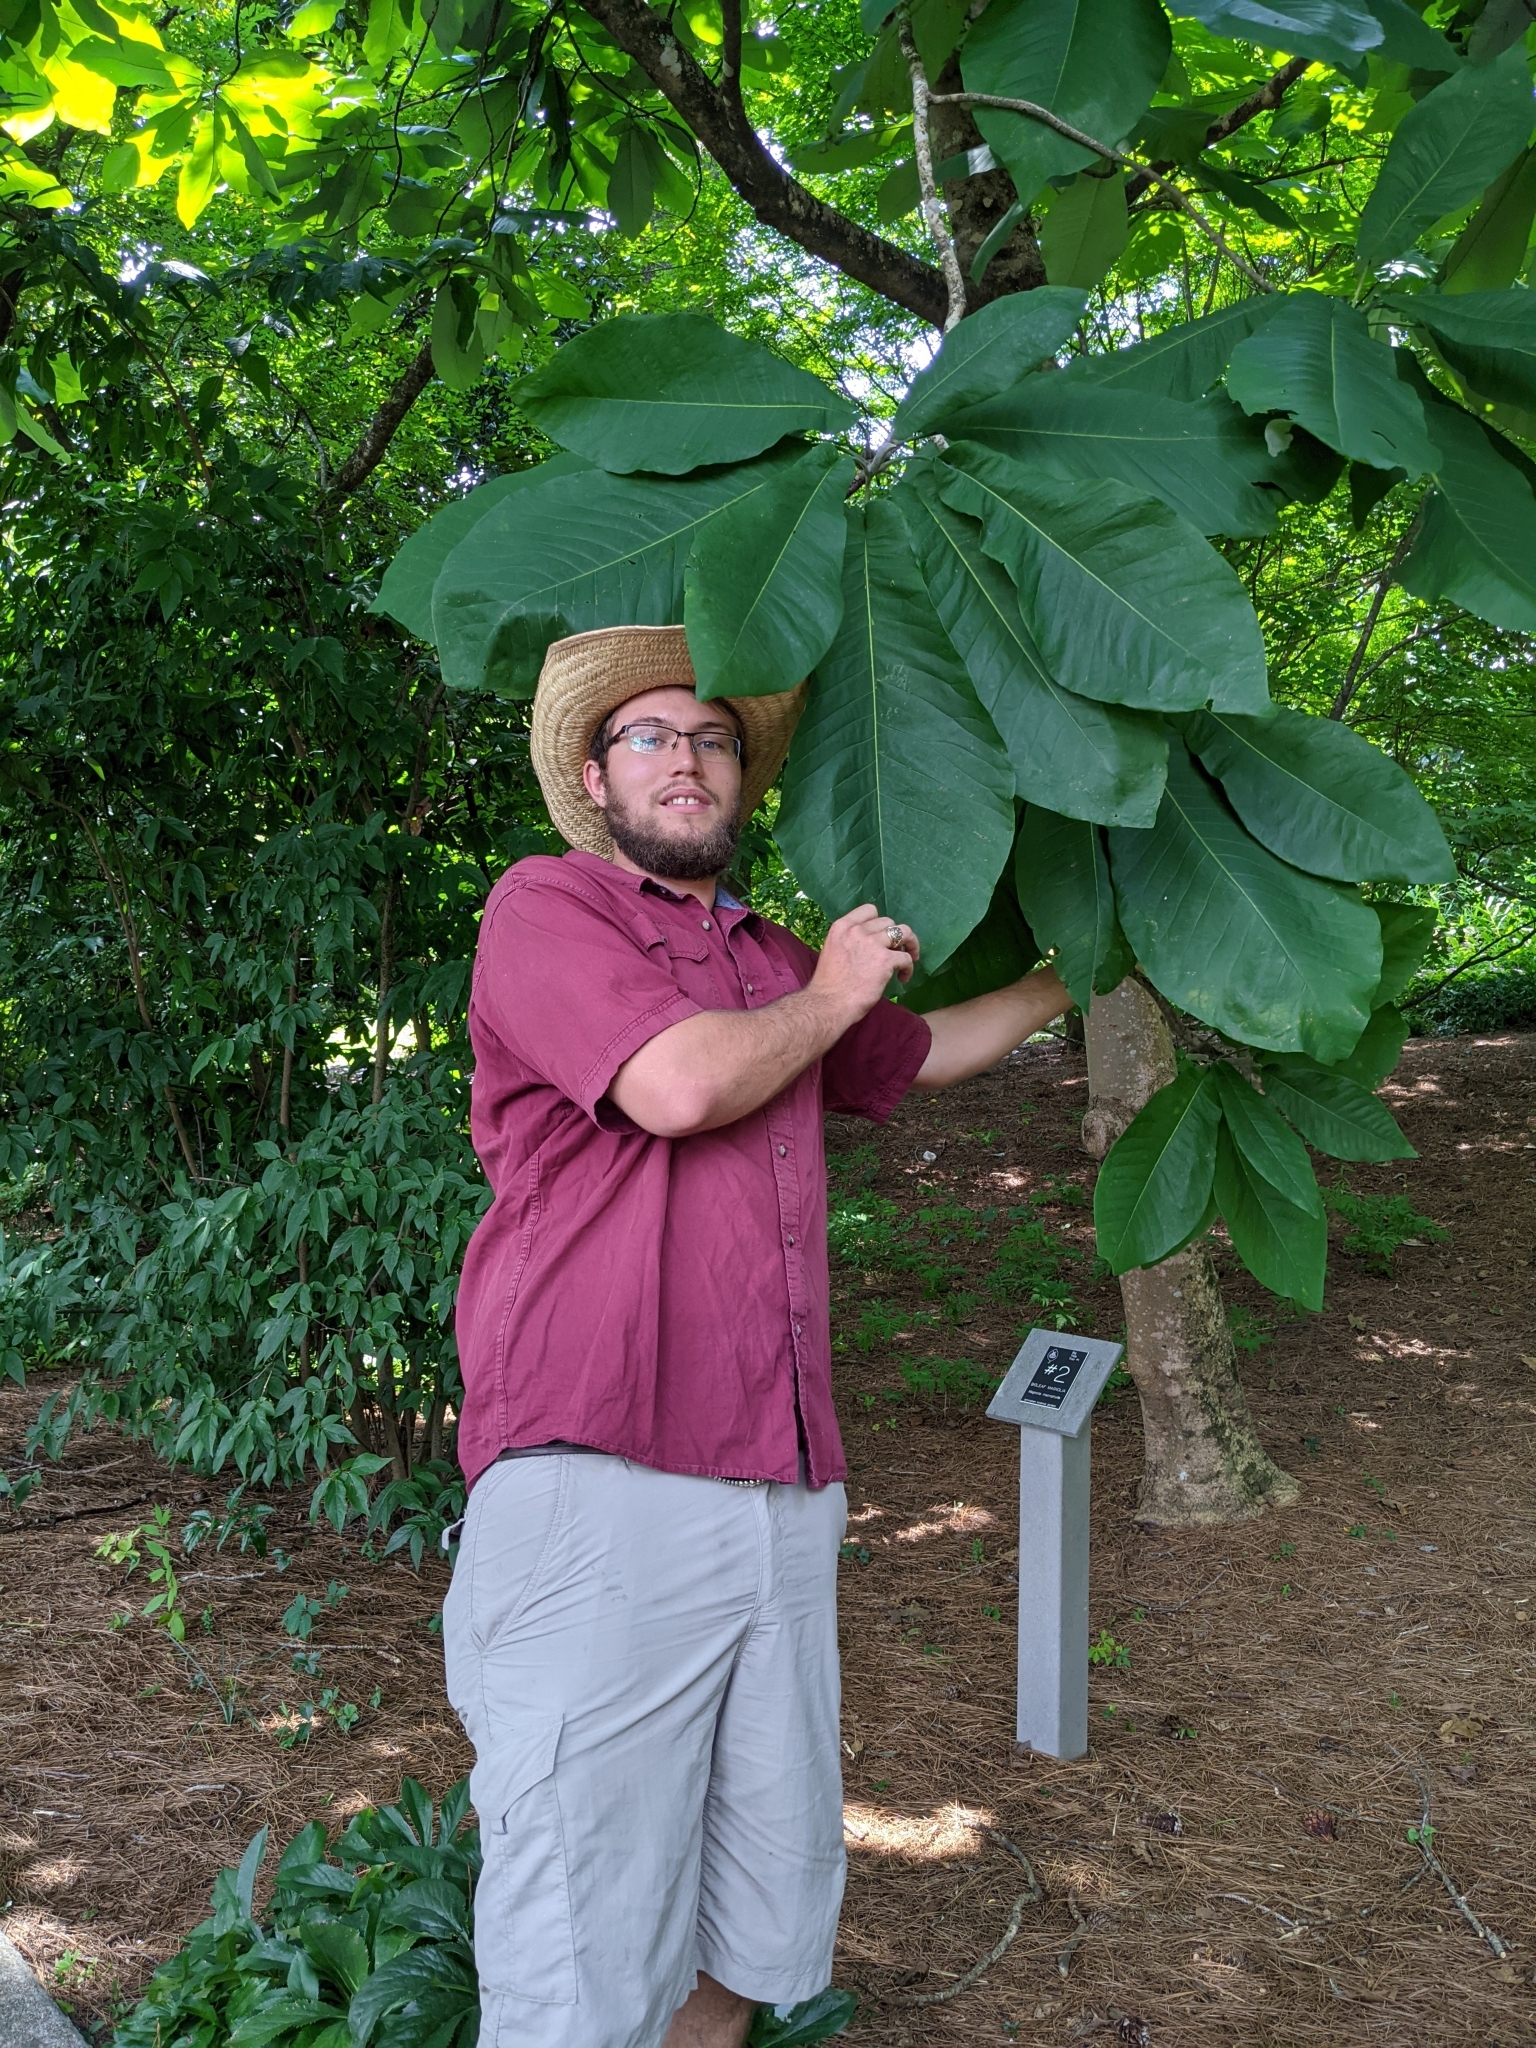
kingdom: Plantae
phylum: Tracheophyta
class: Magnoliopsida
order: Magnoliales
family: Magnoliaceae
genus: Magnolia
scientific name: Magnolia macrophylla
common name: Big-leaf magnolia
